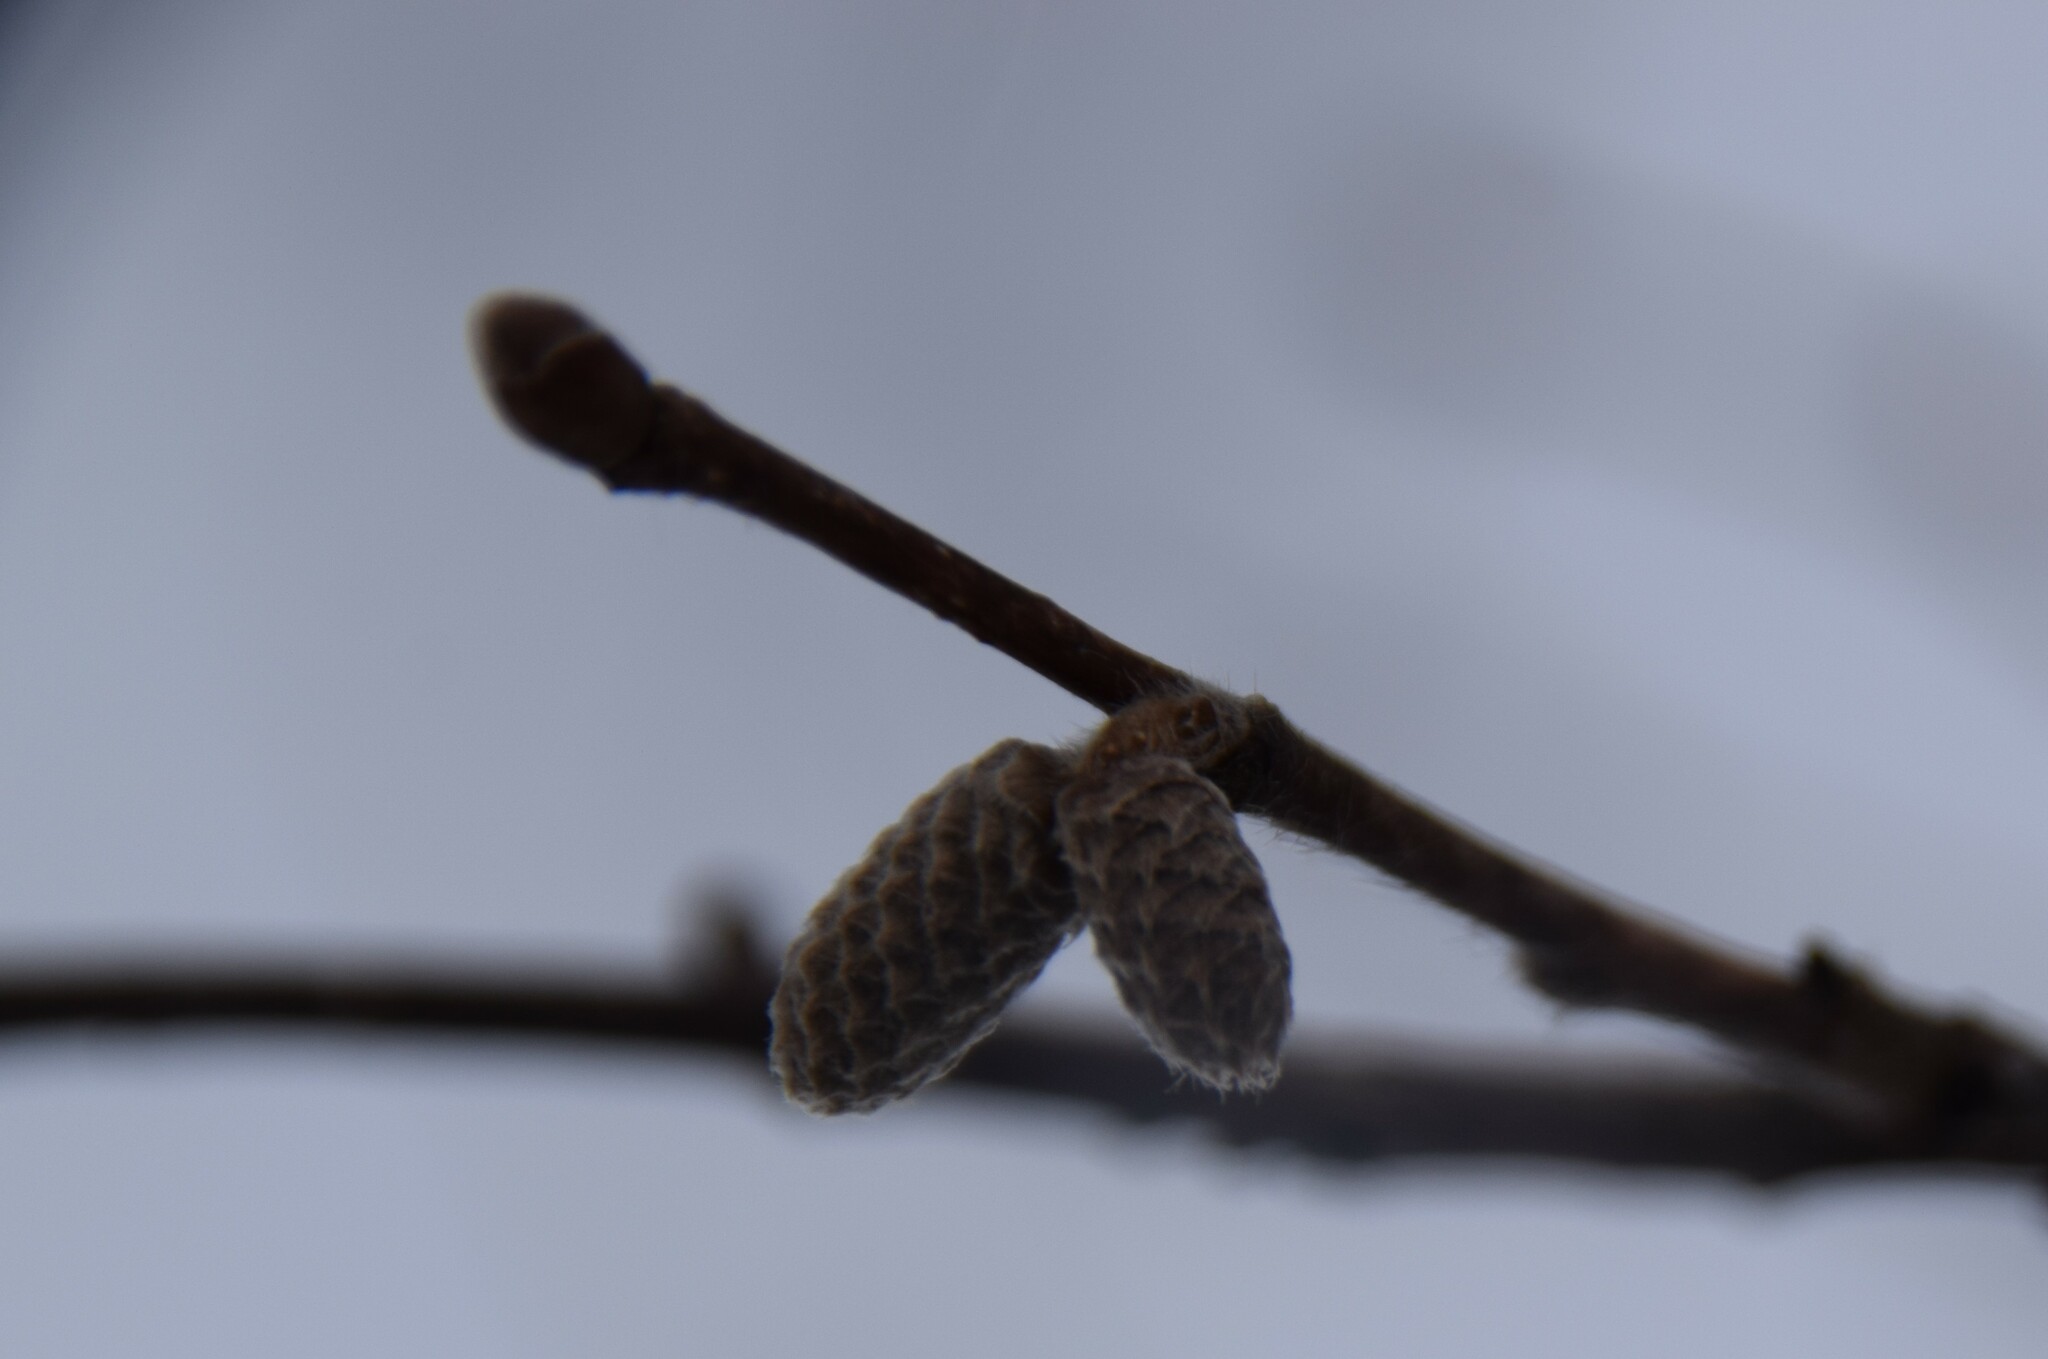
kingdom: Plantae
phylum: Tracheophyta
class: Magnoliopsida
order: Fagales
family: Betulaceae
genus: Corylus
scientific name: Corylus cornuta
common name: Beaked hazel
